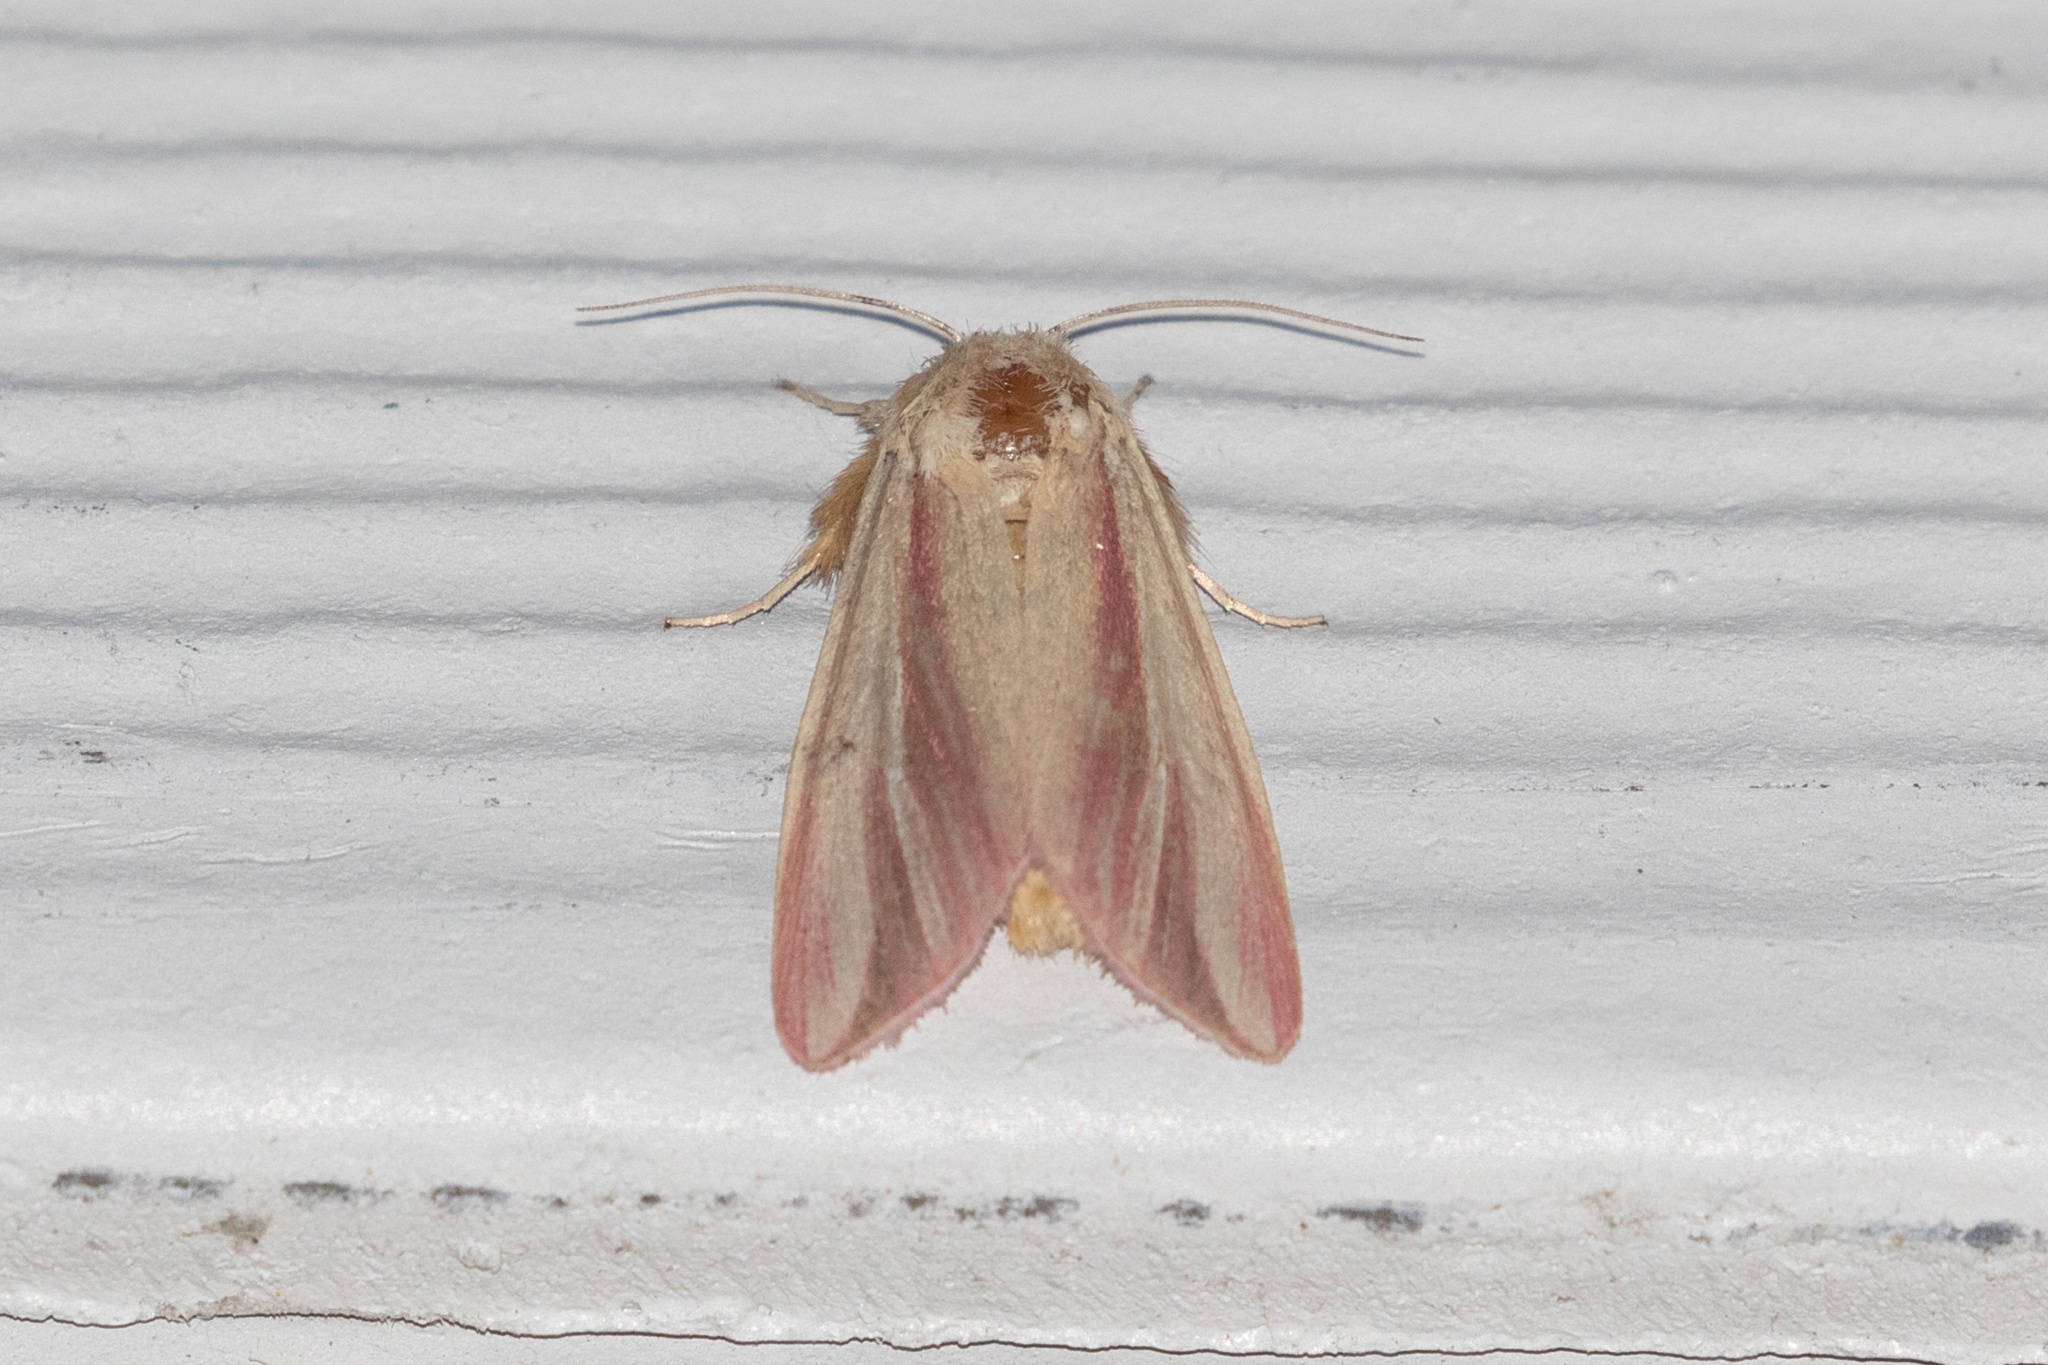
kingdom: Animalia
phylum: Arthropoda
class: Insecta
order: Lepidoptera
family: Noctuidae
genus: Dargida
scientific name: Dargida rubripennis
